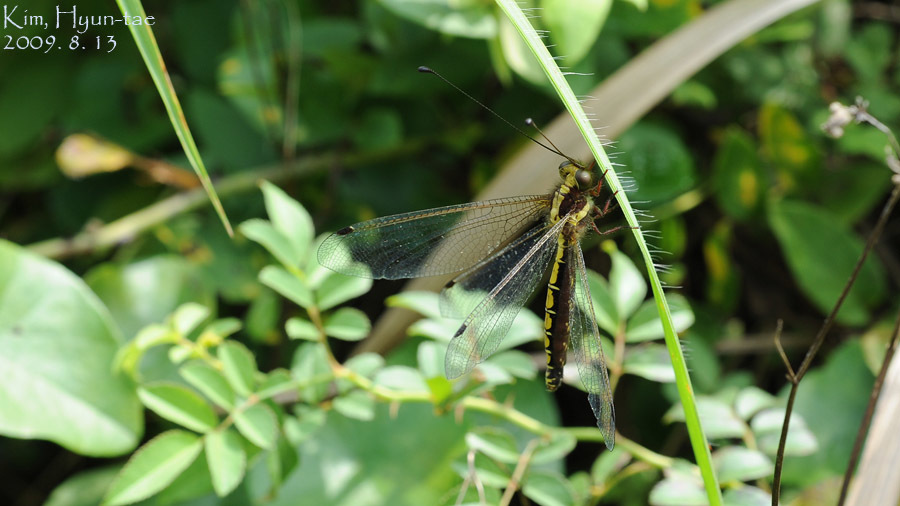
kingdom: Animalia
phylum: Arthropoda
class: Insecta
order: Neuroptera
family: Ascalaphidae
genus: Ascalohybris
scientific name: Ascalohybris subjacens
